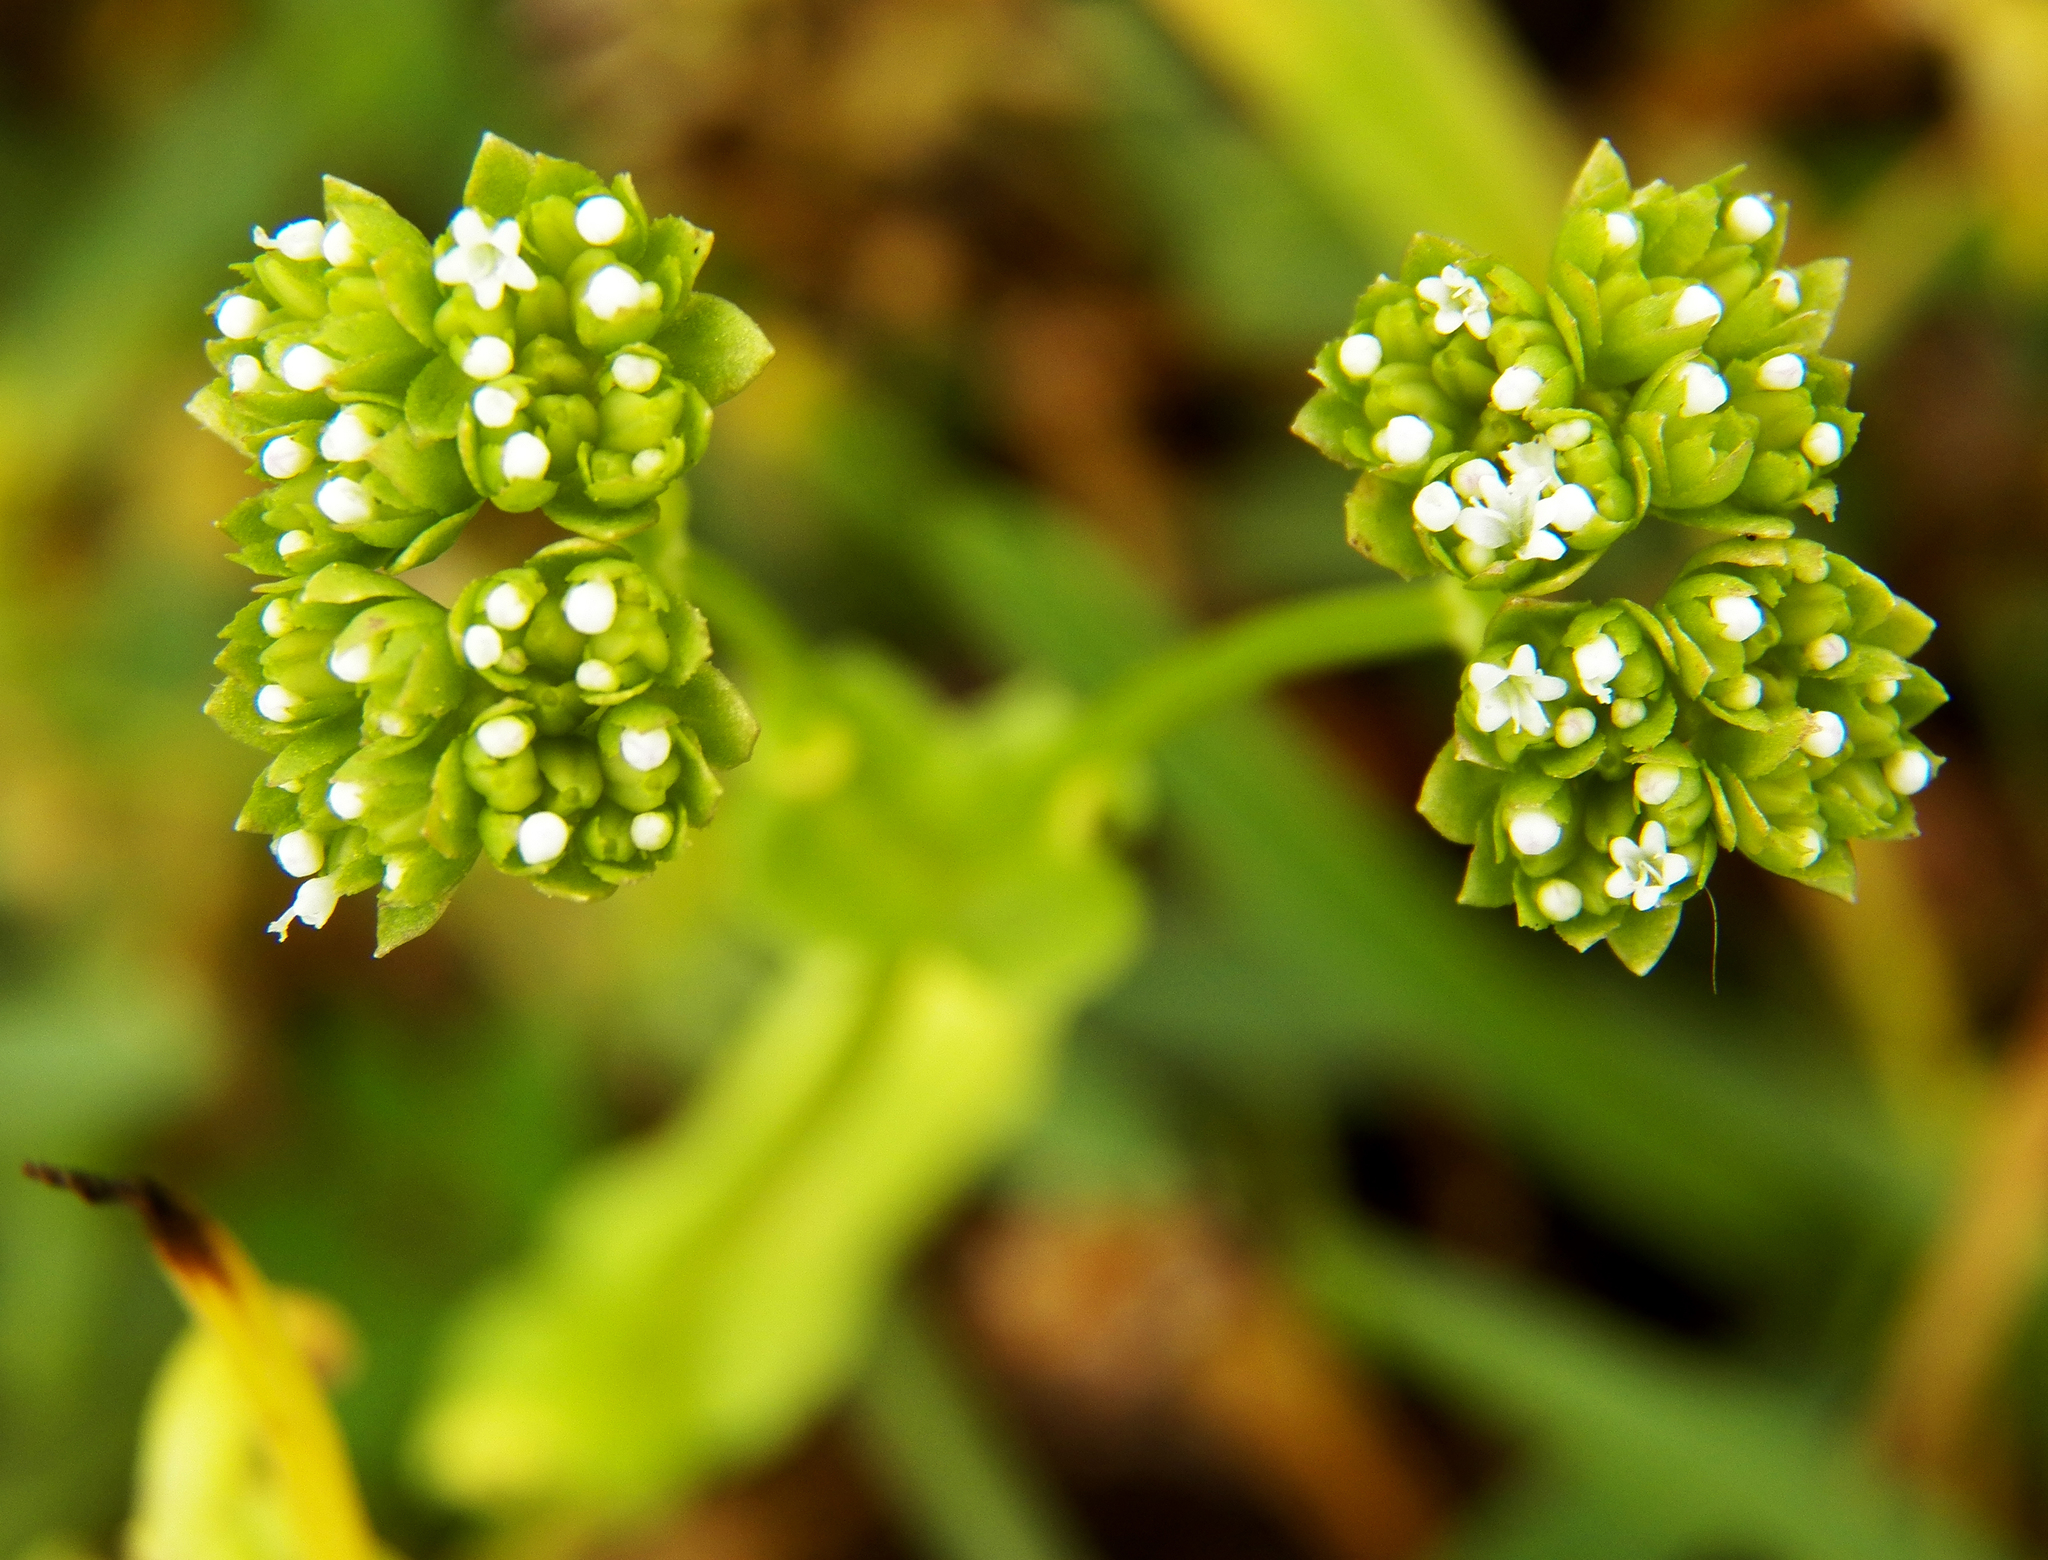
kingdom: Plantae
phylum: Tracheophyta
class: Magnoliopsida
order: Dipsacales
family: Caprifoliaceae
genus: Valerianella
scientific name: Valerianella radiata
